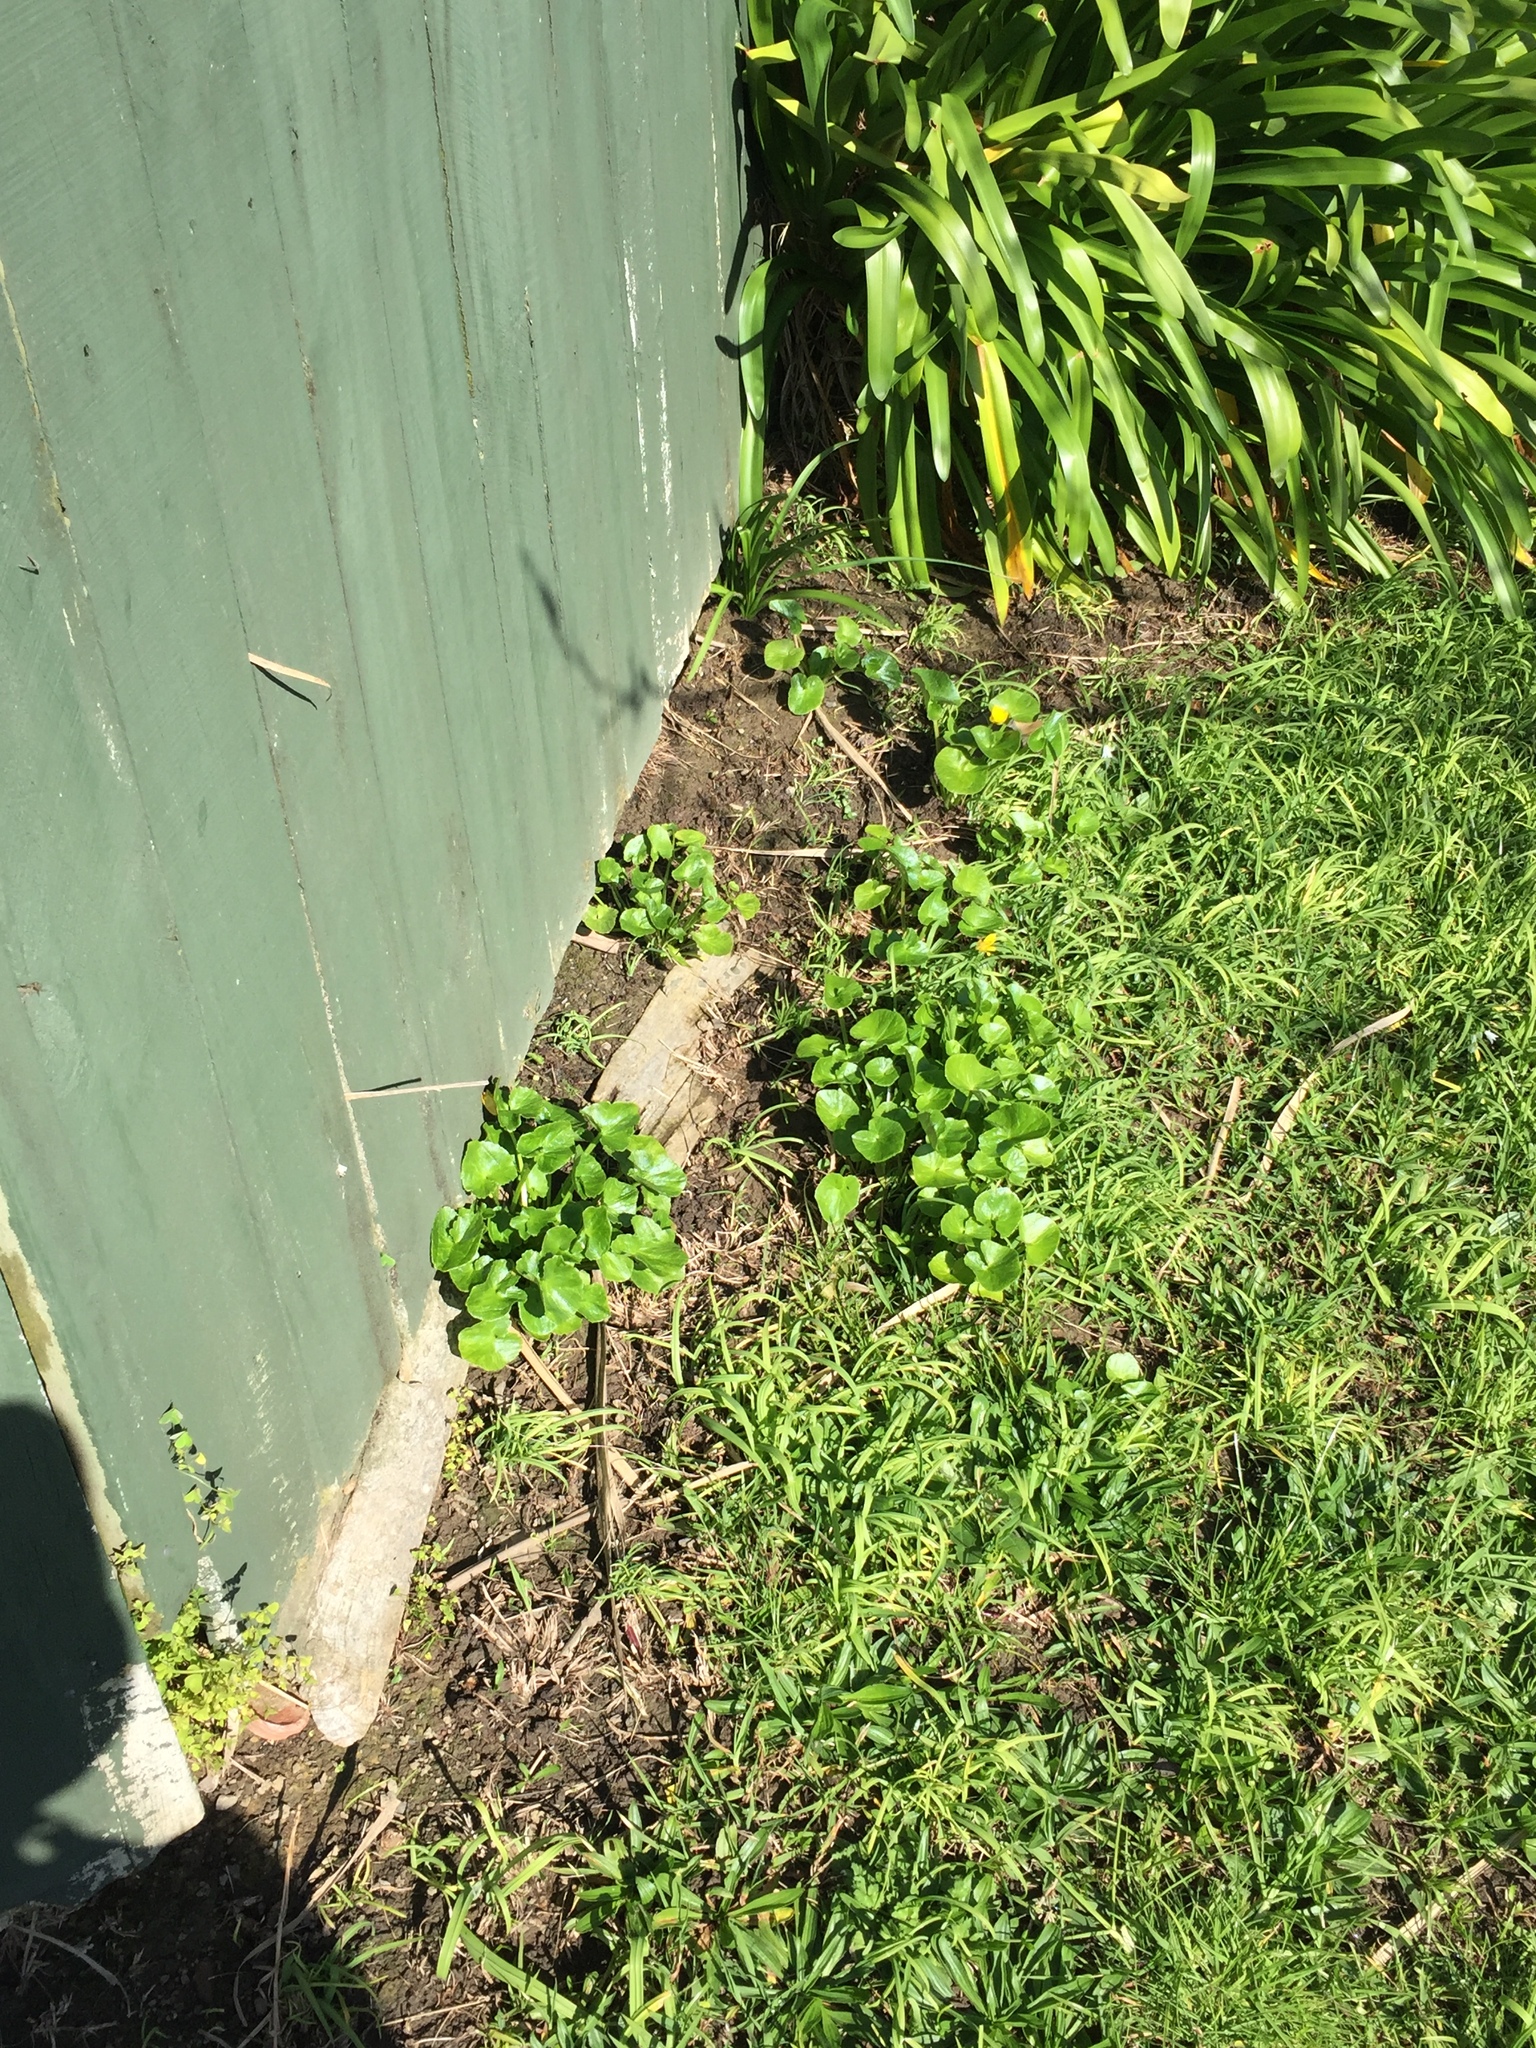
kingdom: Plantae
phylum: Tracheophyta
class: Magnoliopsida
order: Ranunculales
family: Ranunculaceae
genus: Ficaria
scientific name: Ficaria verna
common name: Lesser celandine
